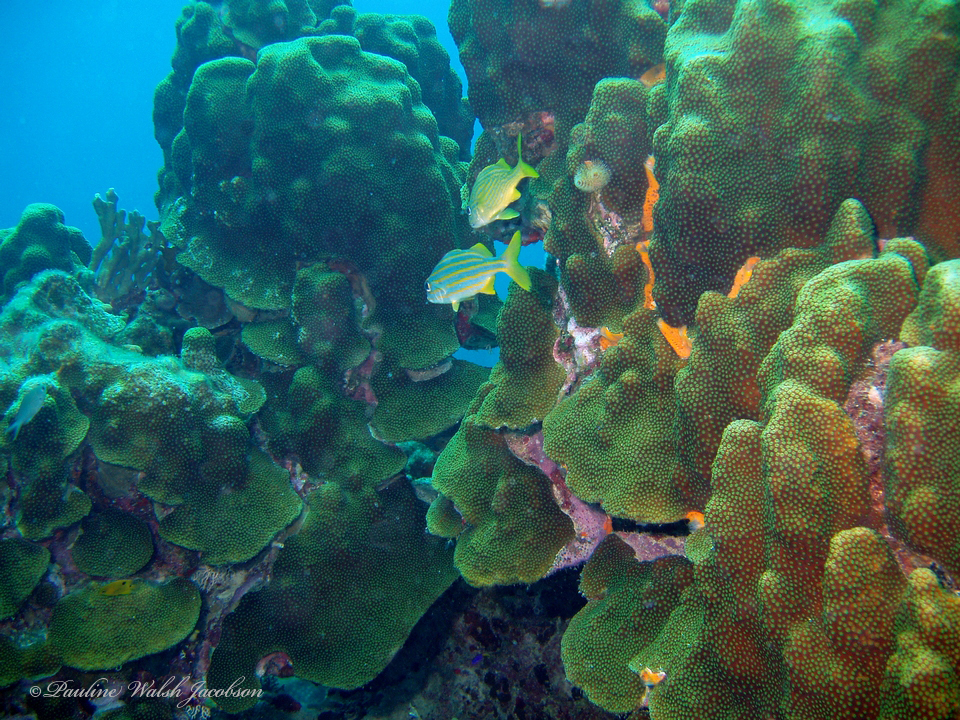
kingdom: Animalia
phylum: Cnidaria
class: Anthozoa
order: Scleractinia
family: Merulinidae
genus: Orbicella
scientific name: Orbicella faveolata
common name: Mountainous star coral
